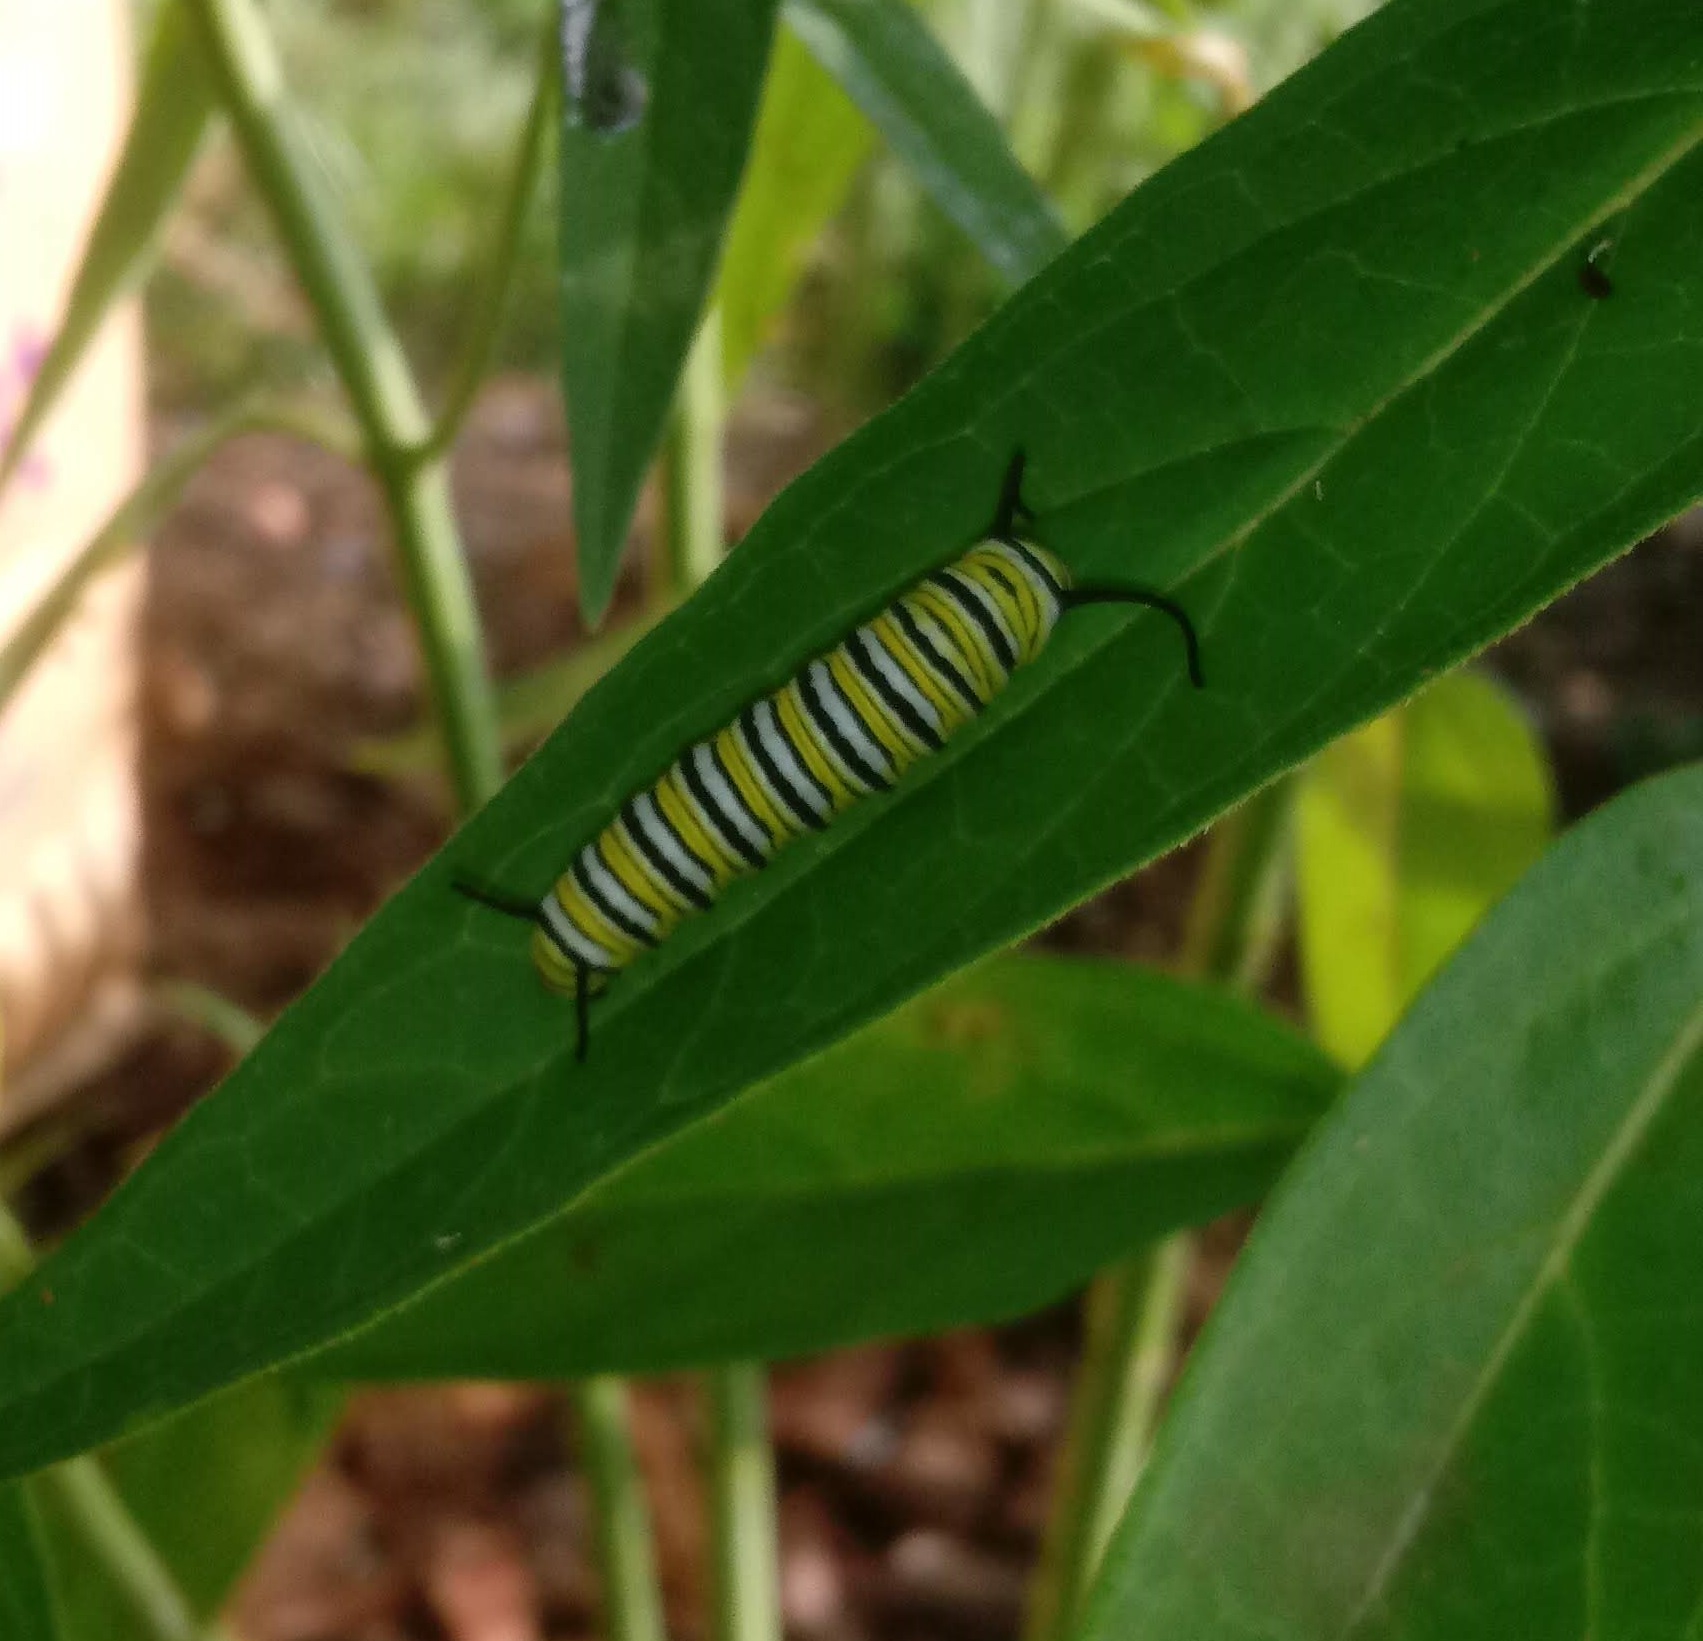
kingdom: Animalia
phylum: Arthropoda
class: Insecta
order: Lepidoptera
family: Nymphalidae
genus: Danaus
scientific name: Danaus plexippus
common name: Monarch
